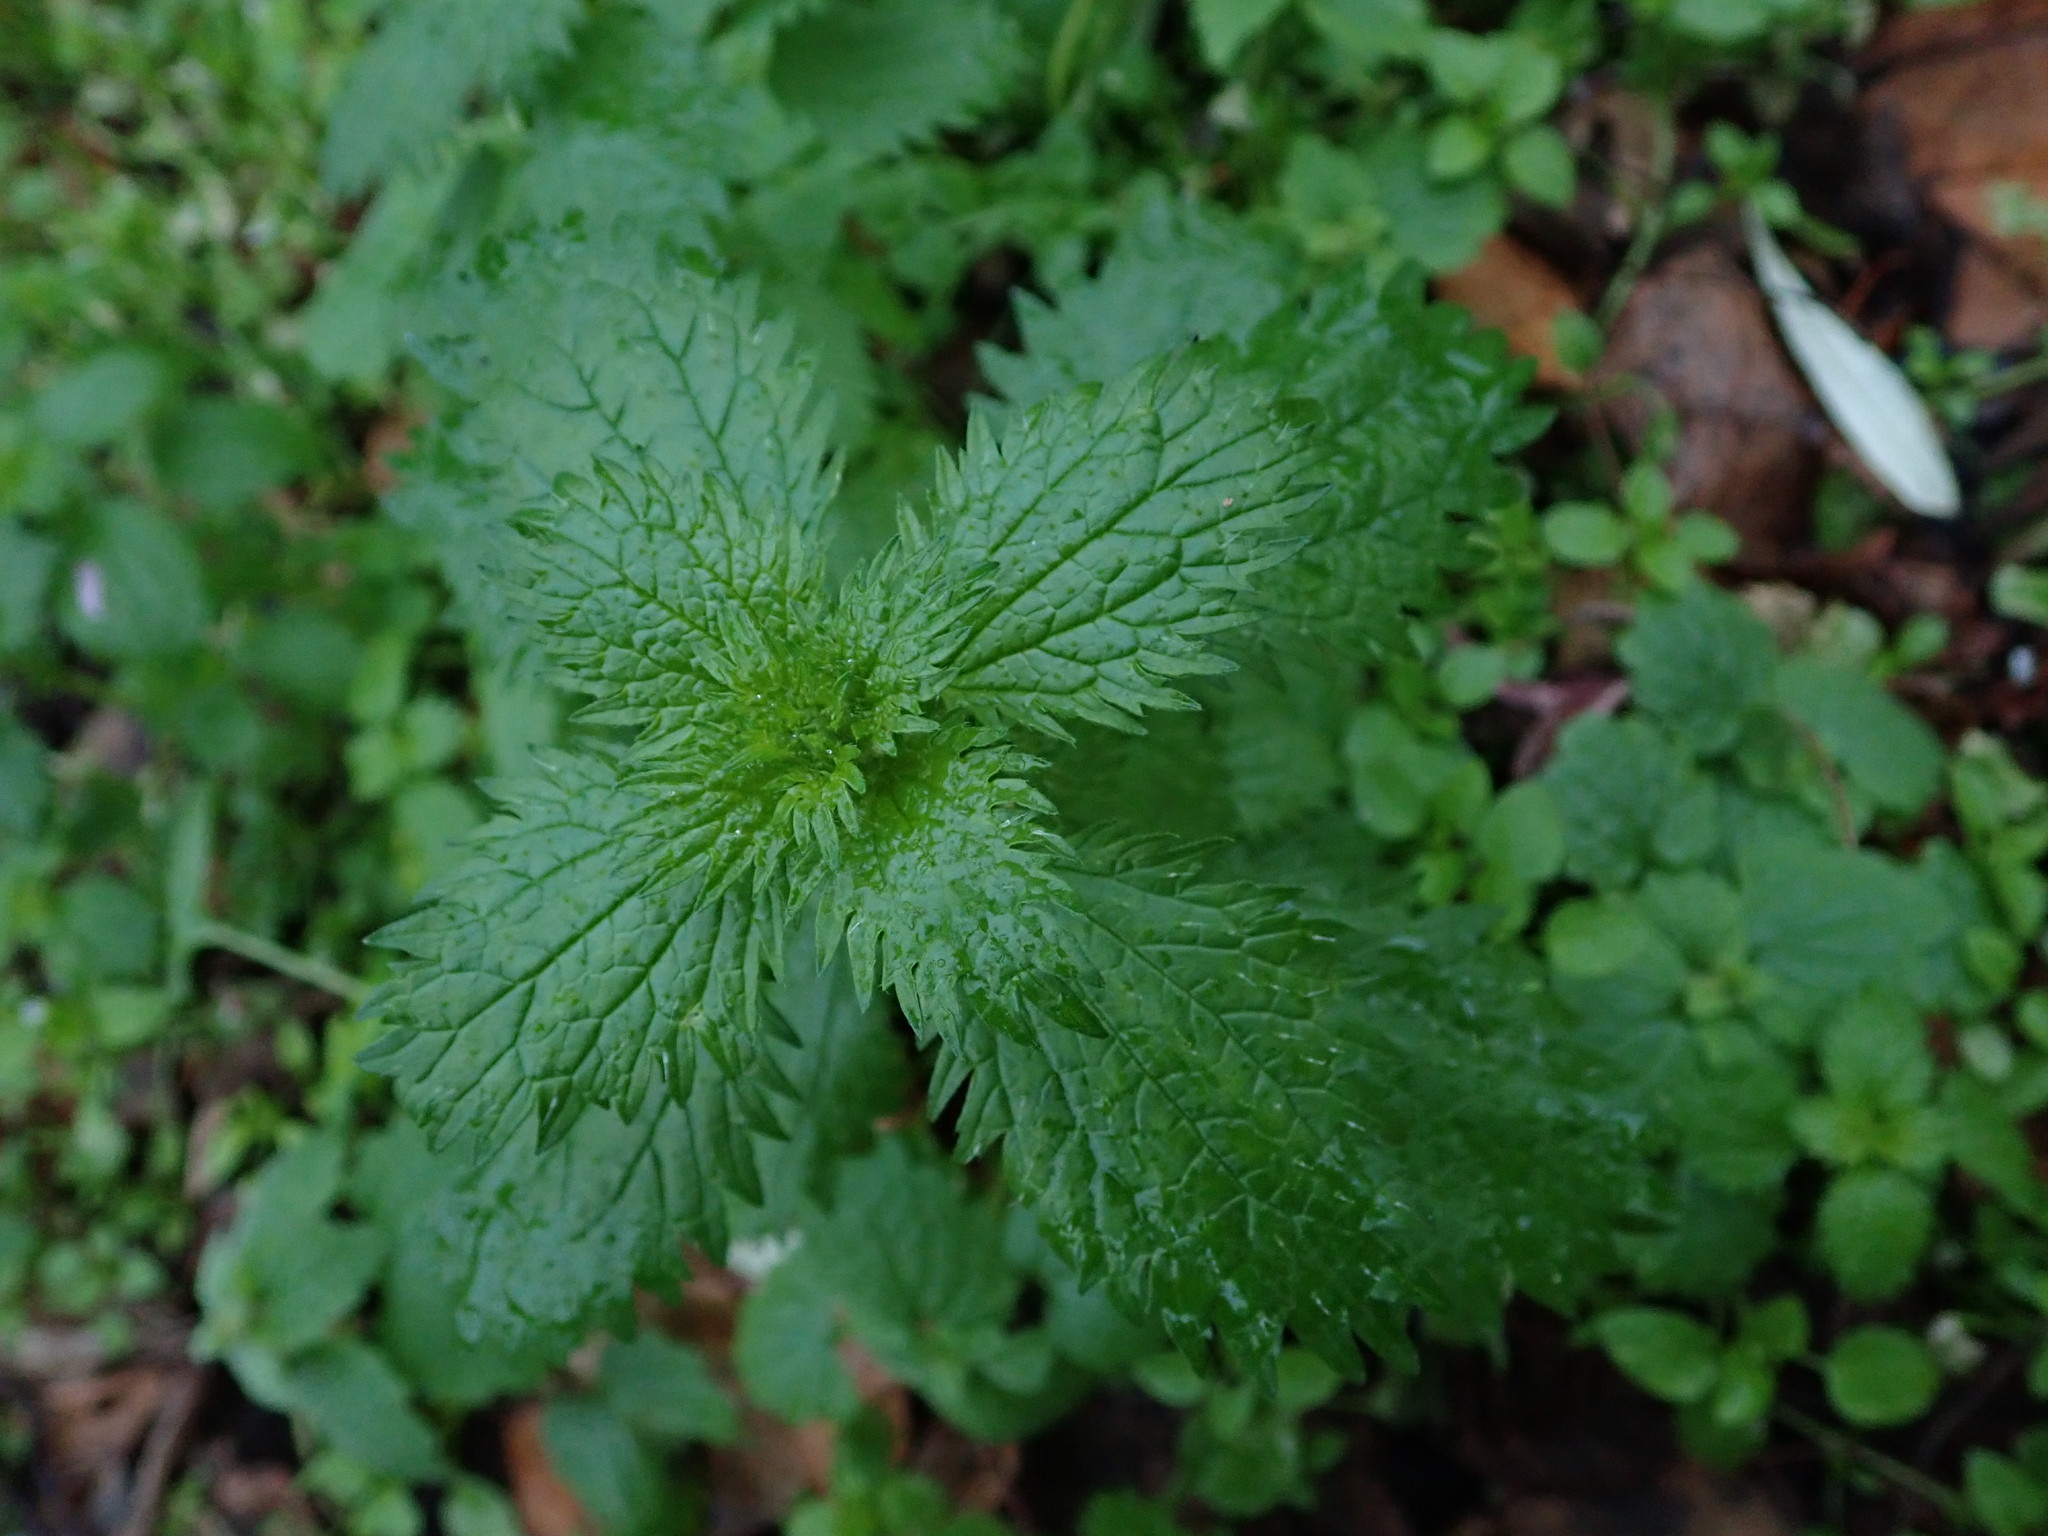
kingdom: Plantae
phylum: Tracheophyta
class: Magnoliopsida
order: Rosales
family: Urticaceae
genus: Urtica
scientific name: Urtica urens
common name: Dwarf nettle
